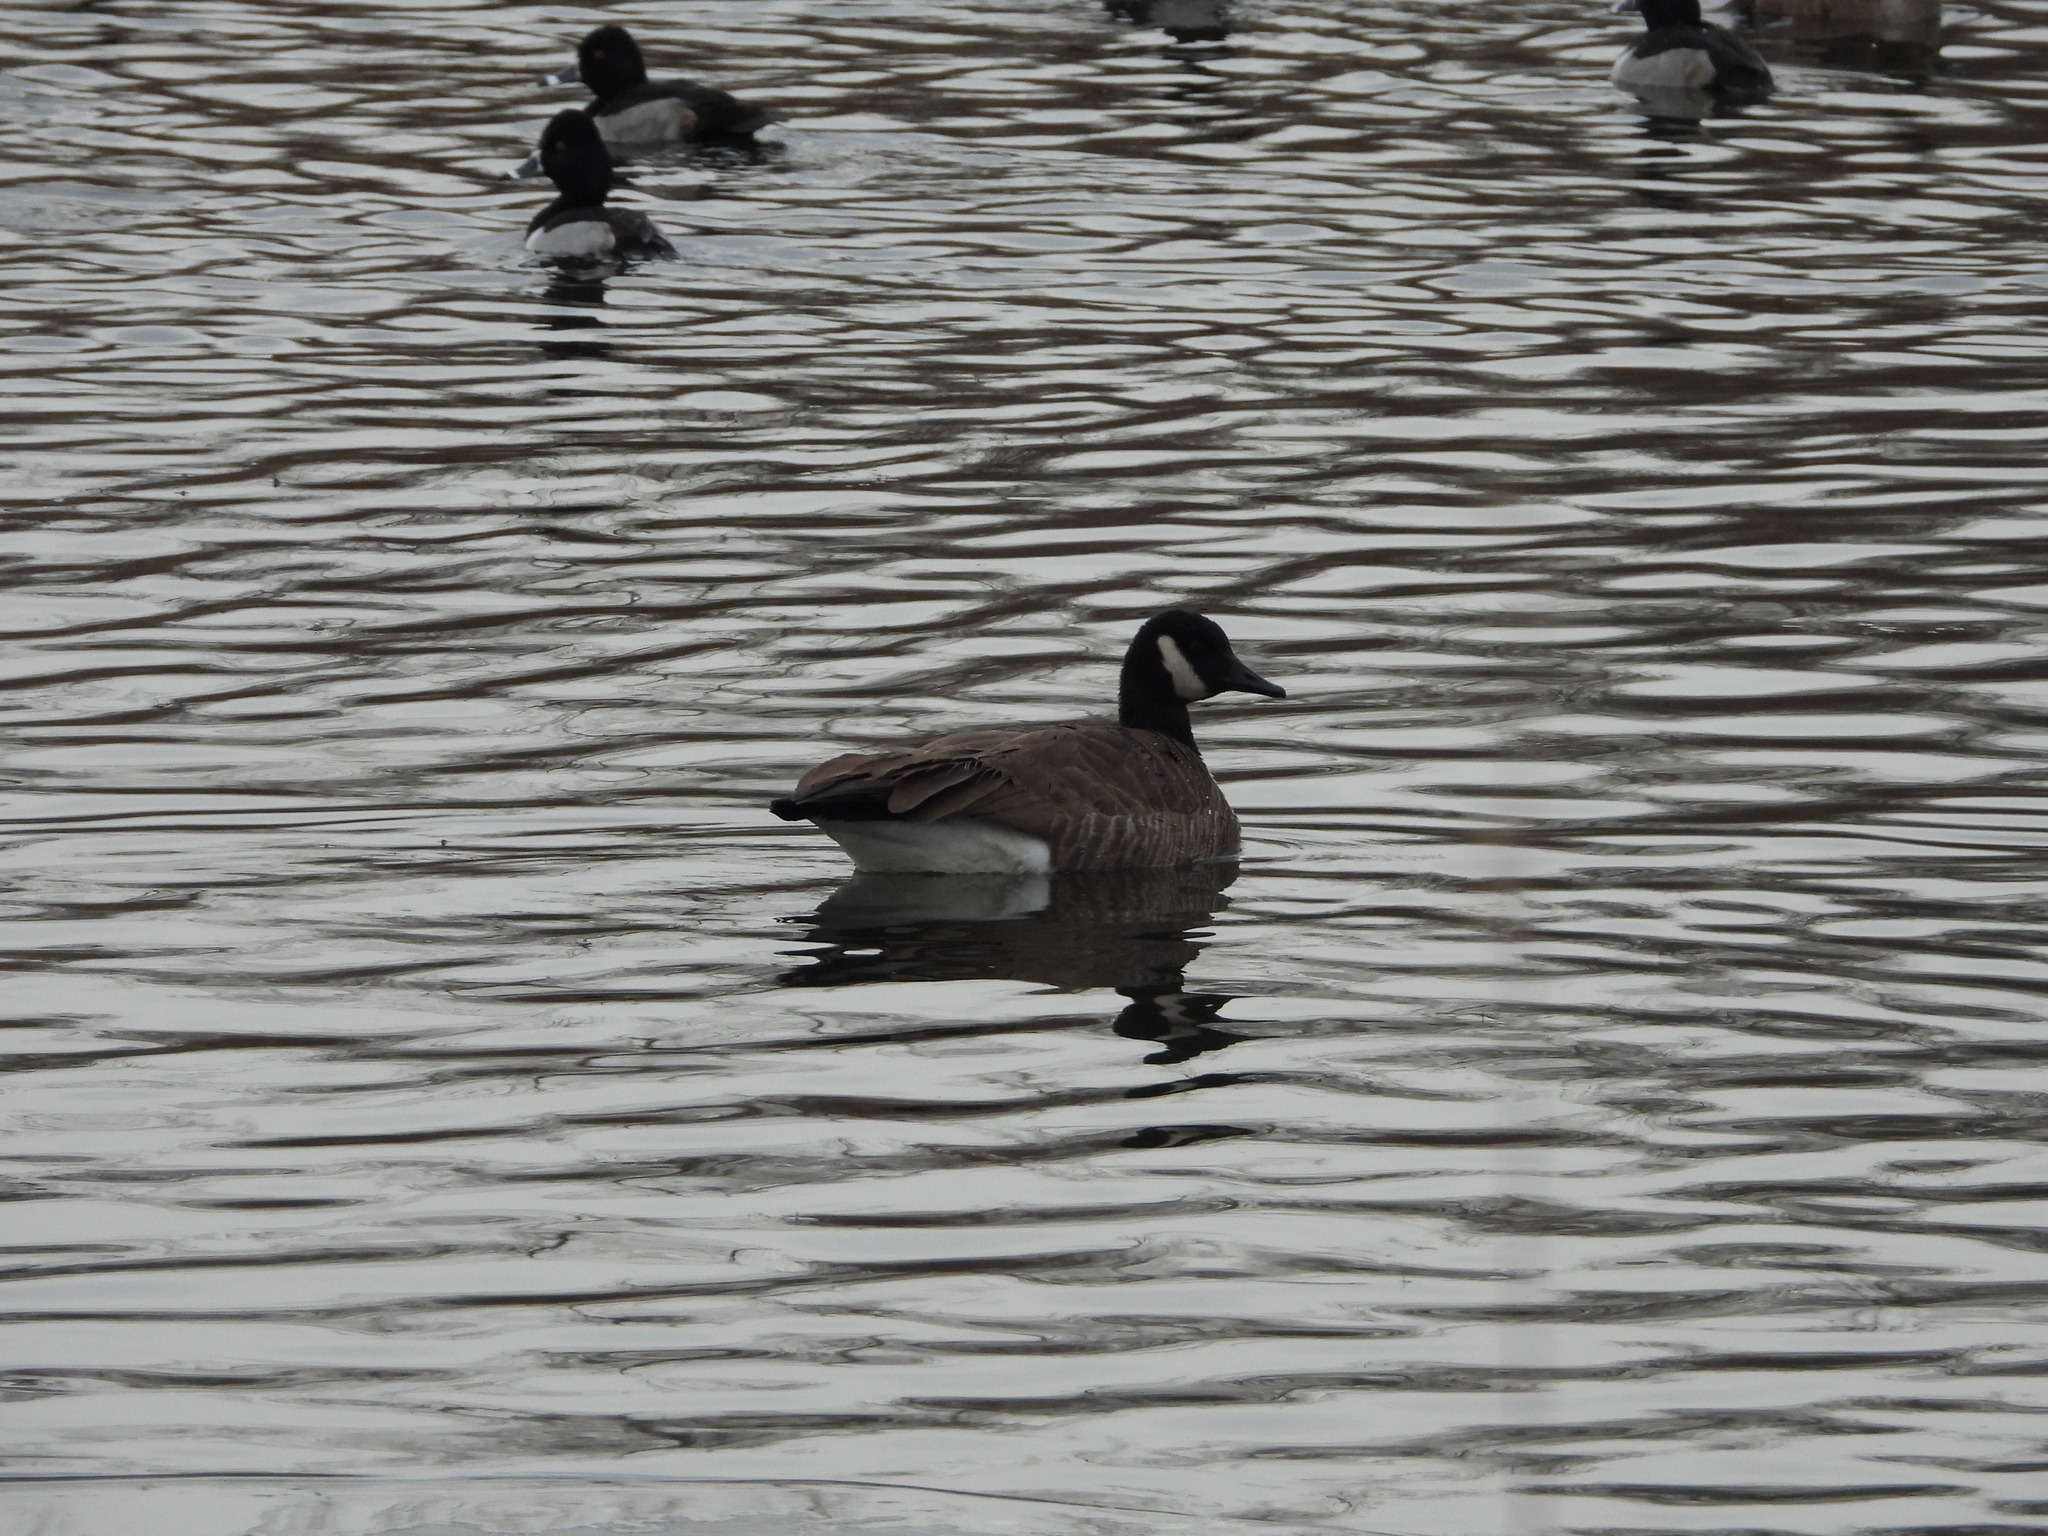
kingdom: Animalia
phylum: Chordata
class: Aves
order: Anseriformes
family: Anatidae
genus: Branta
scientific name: Branta canadensis
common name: Canada goose
